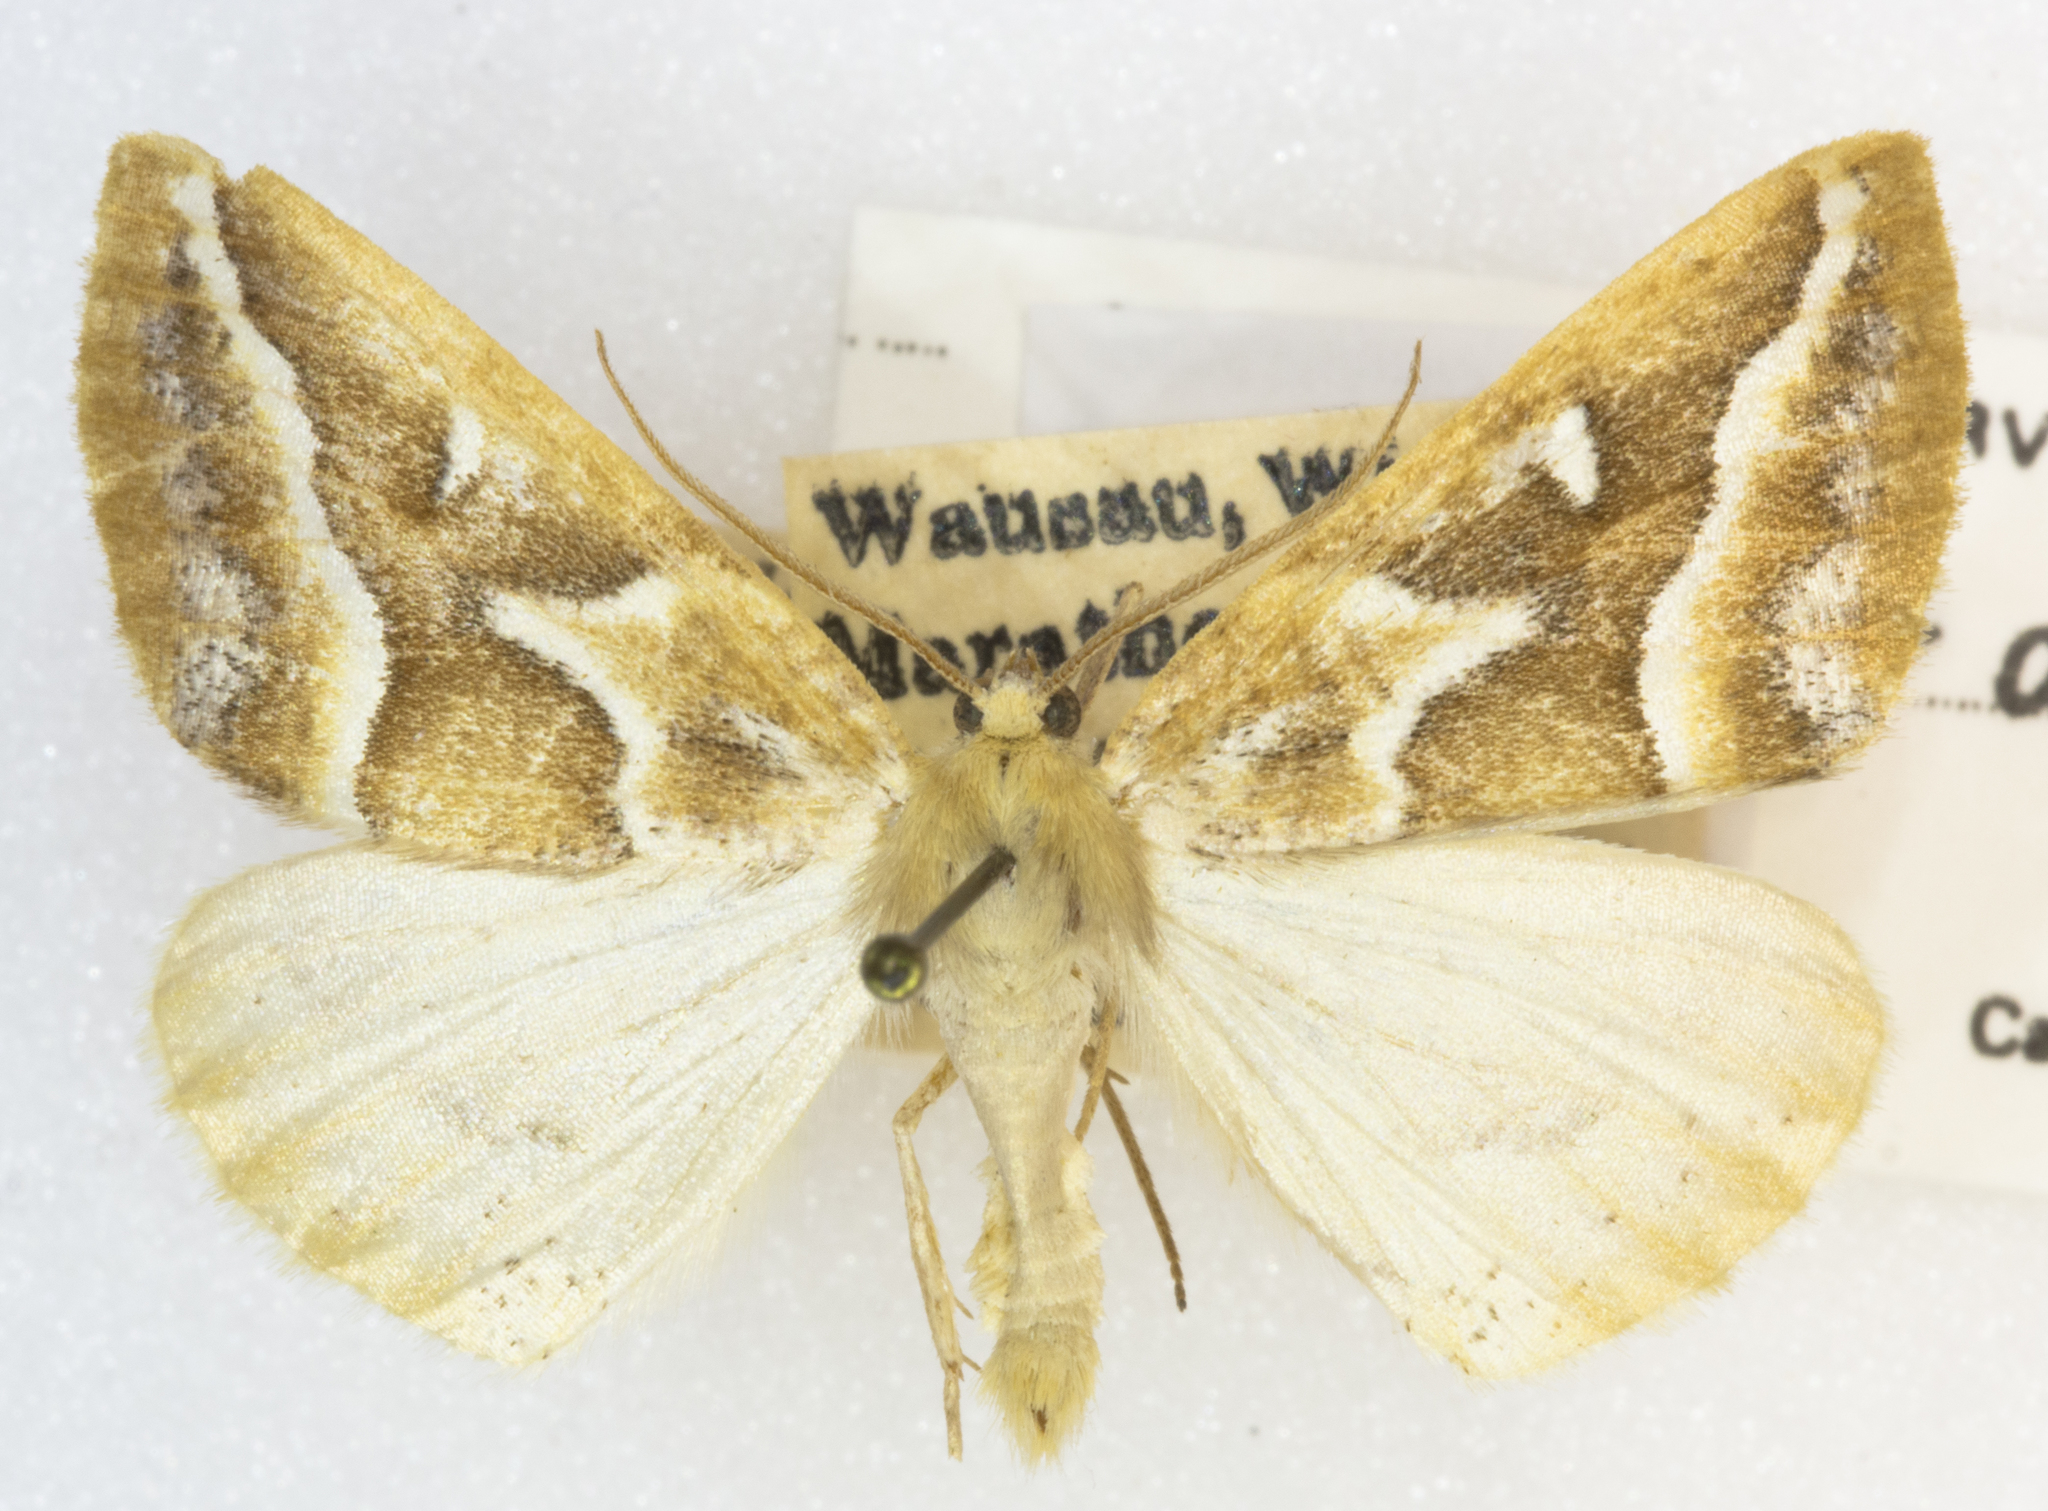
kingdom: Animalia
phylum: Arthropoda
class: Insecta
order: Lepidoptera
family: Geometridae
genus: Caripeta
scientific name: Caripeta angustiorata
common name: Brown pine looper
